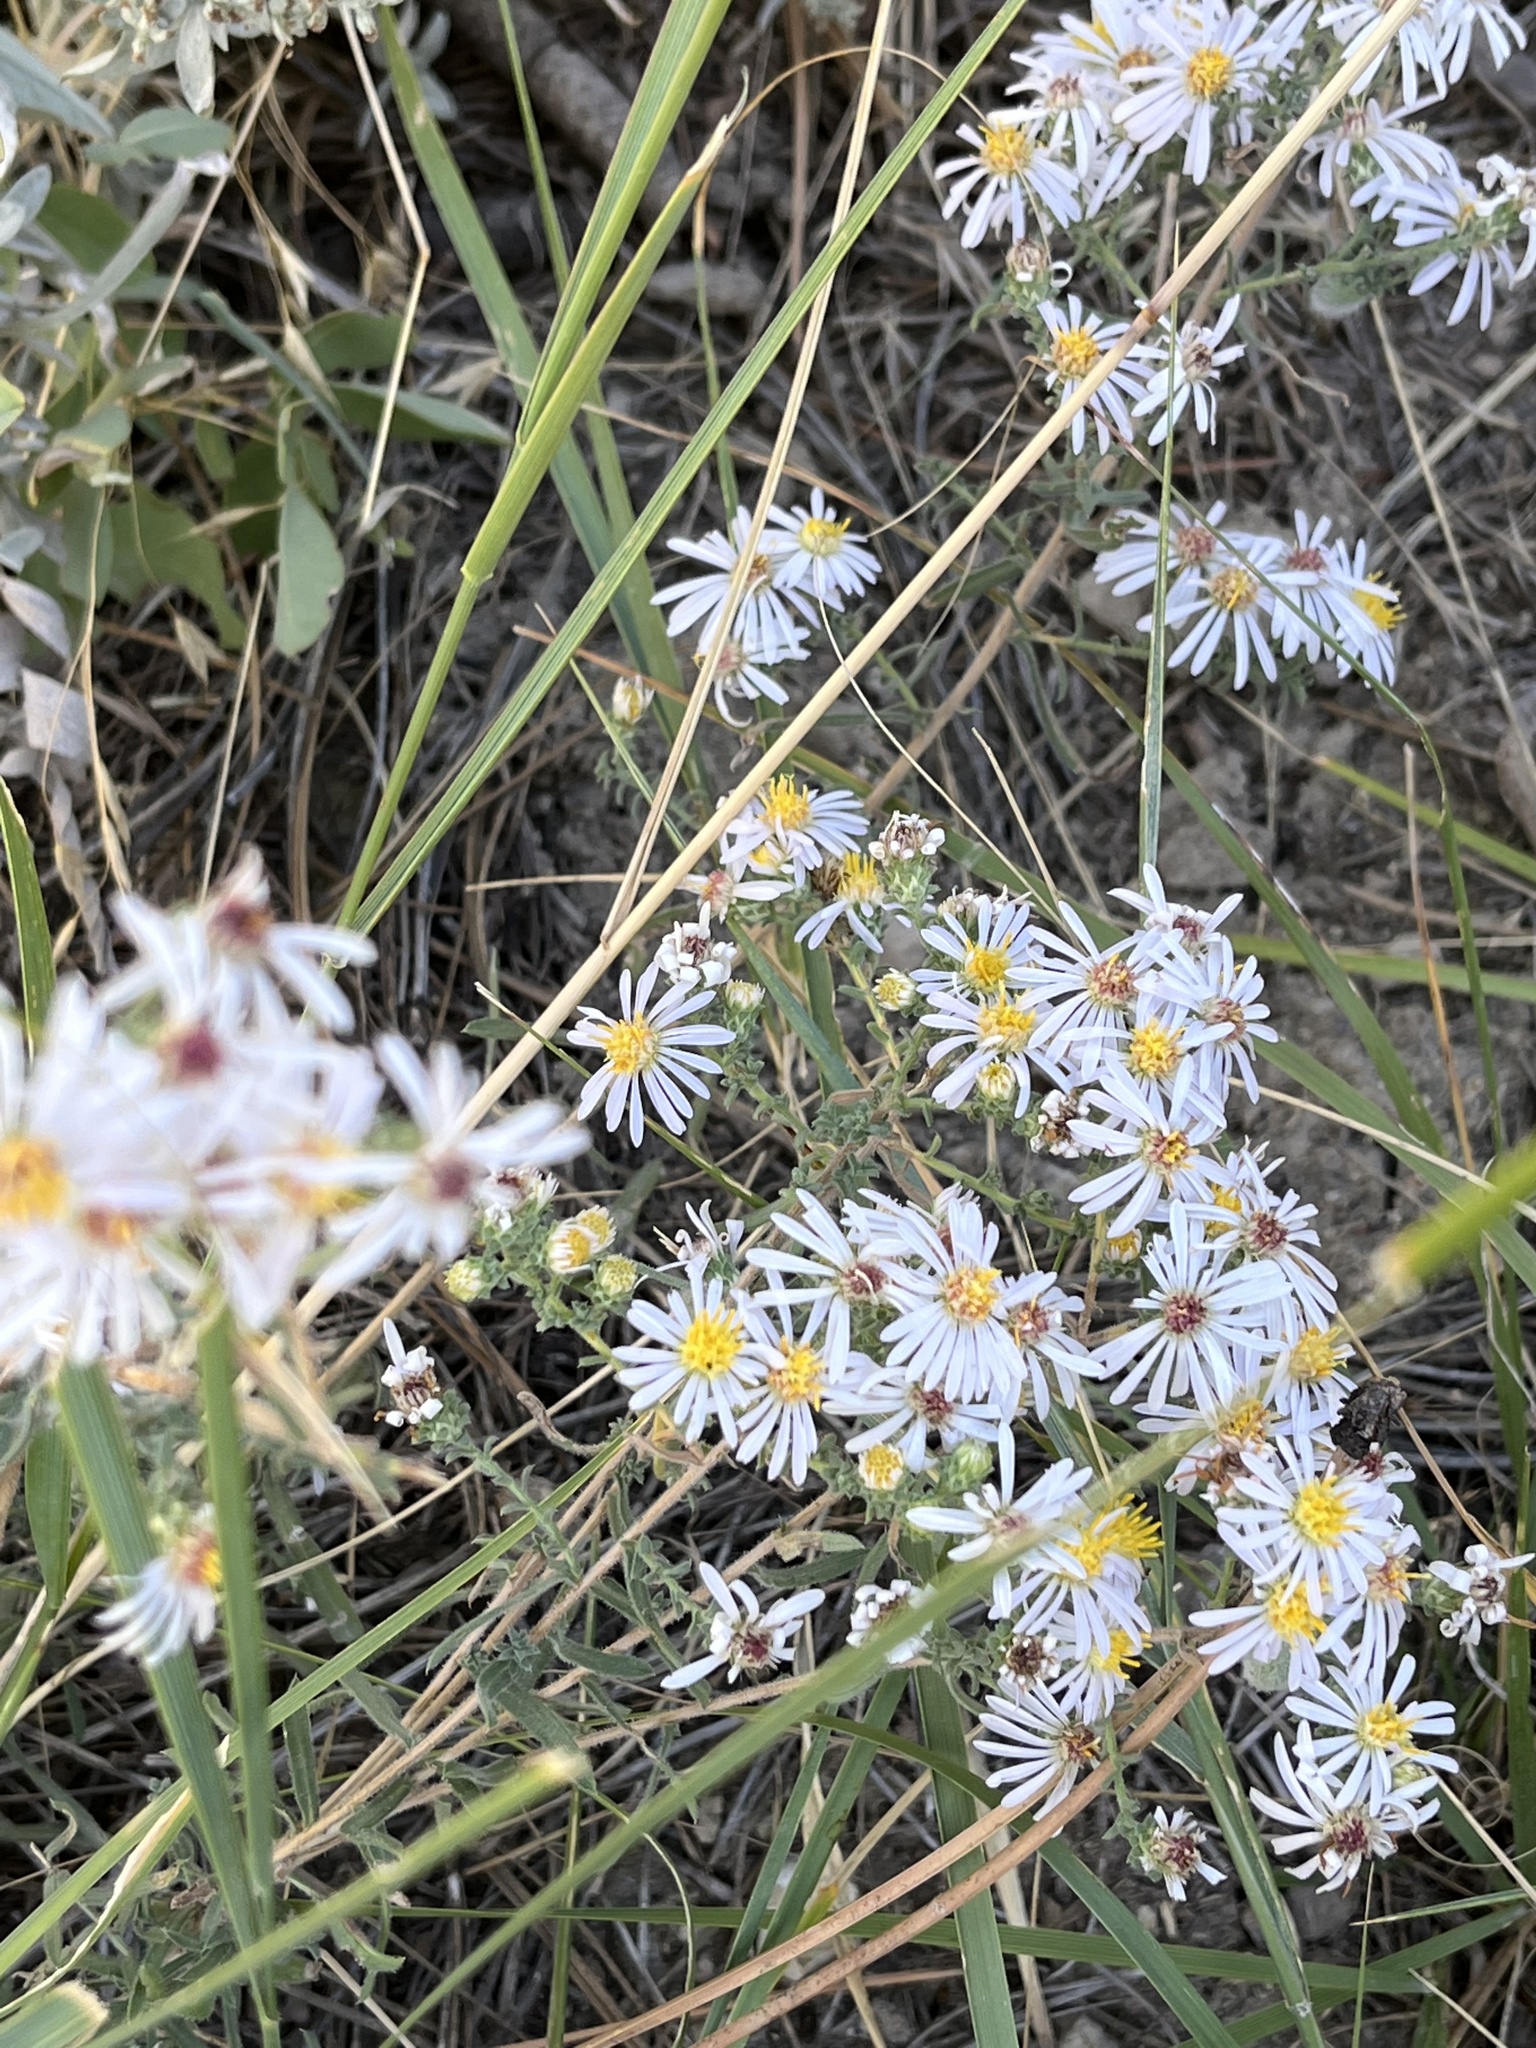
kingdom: Plantae
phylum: Tracheophyta
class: Magnoliopsida
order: Asterales
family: Asteraceae
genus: Symphyotrichum
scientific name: Symphyotrichum ericoides
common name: Heath aster
